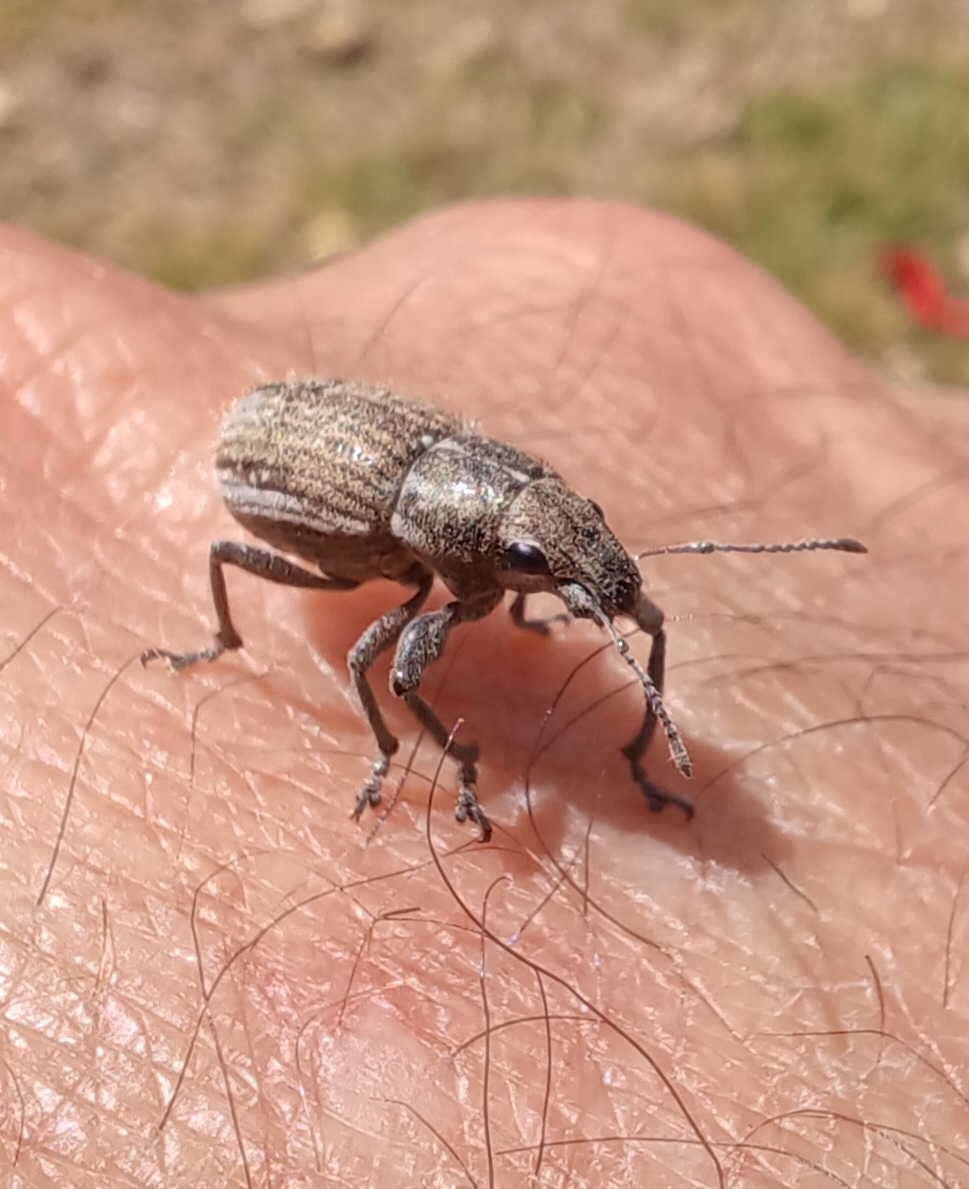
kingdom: Animalia
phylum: Arthropoda
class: Insecta
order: Coleoptera
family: Curculionidae
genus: Naupactus
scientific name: Naupactus leucoloma
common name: Whitefringed beetle
